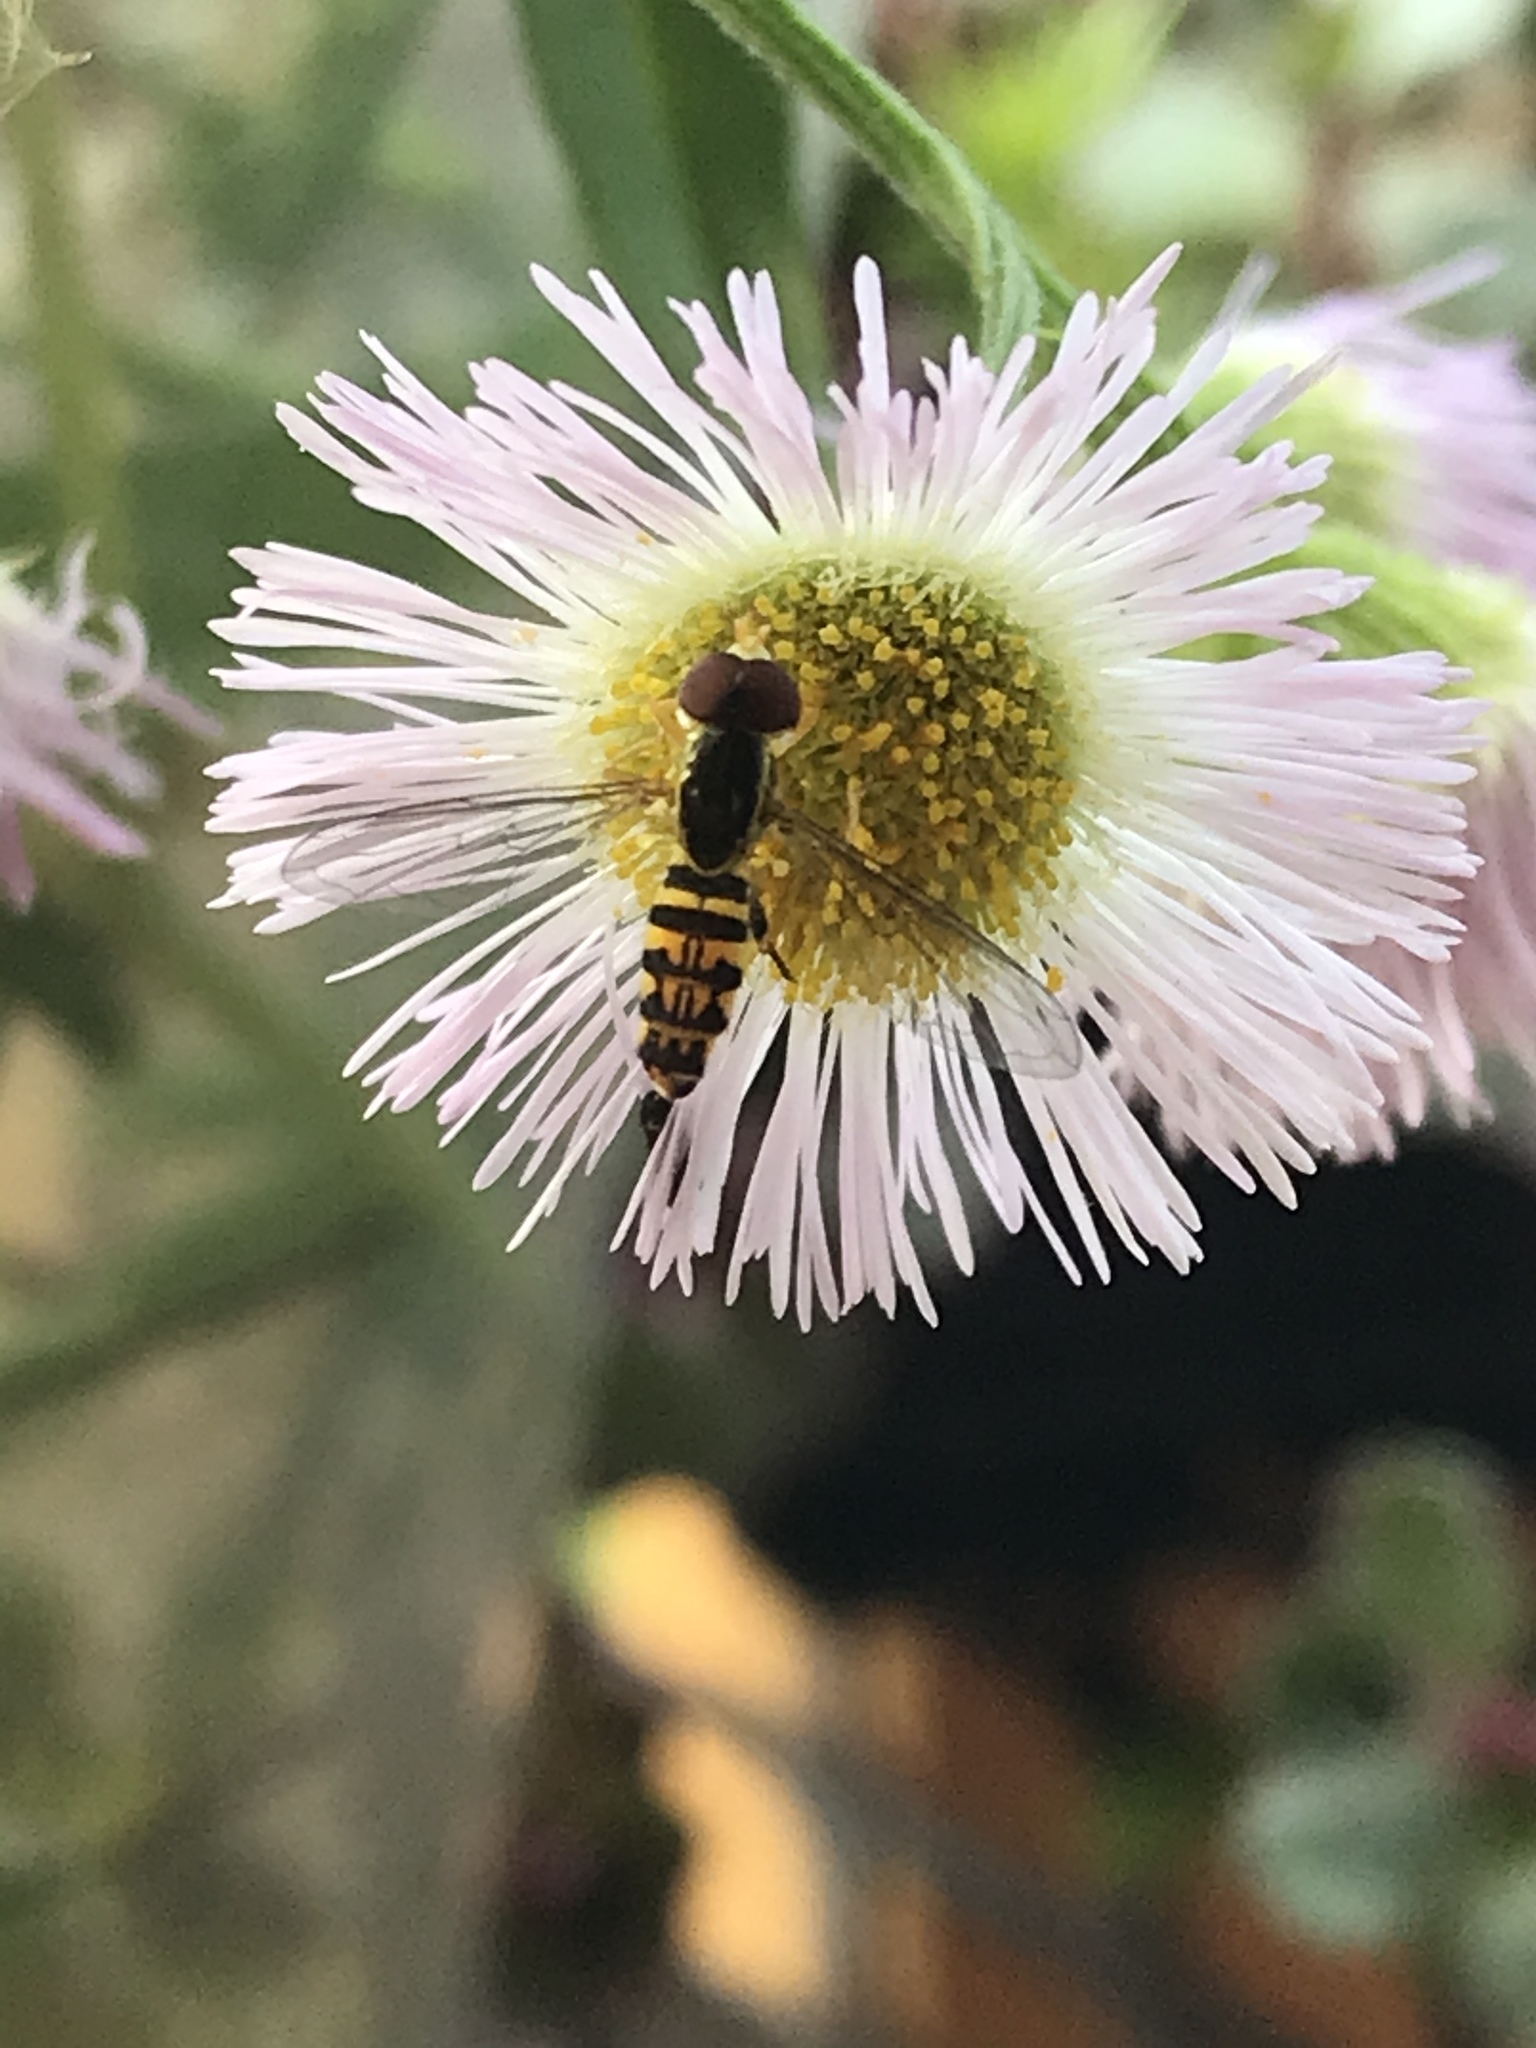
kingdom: Animalia
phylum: Arthropoda
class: Insecta
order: Diptera
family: Syrphidae
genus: Toxomerus
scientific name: Toxomerus geminatus
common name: Eastern calligrapher
